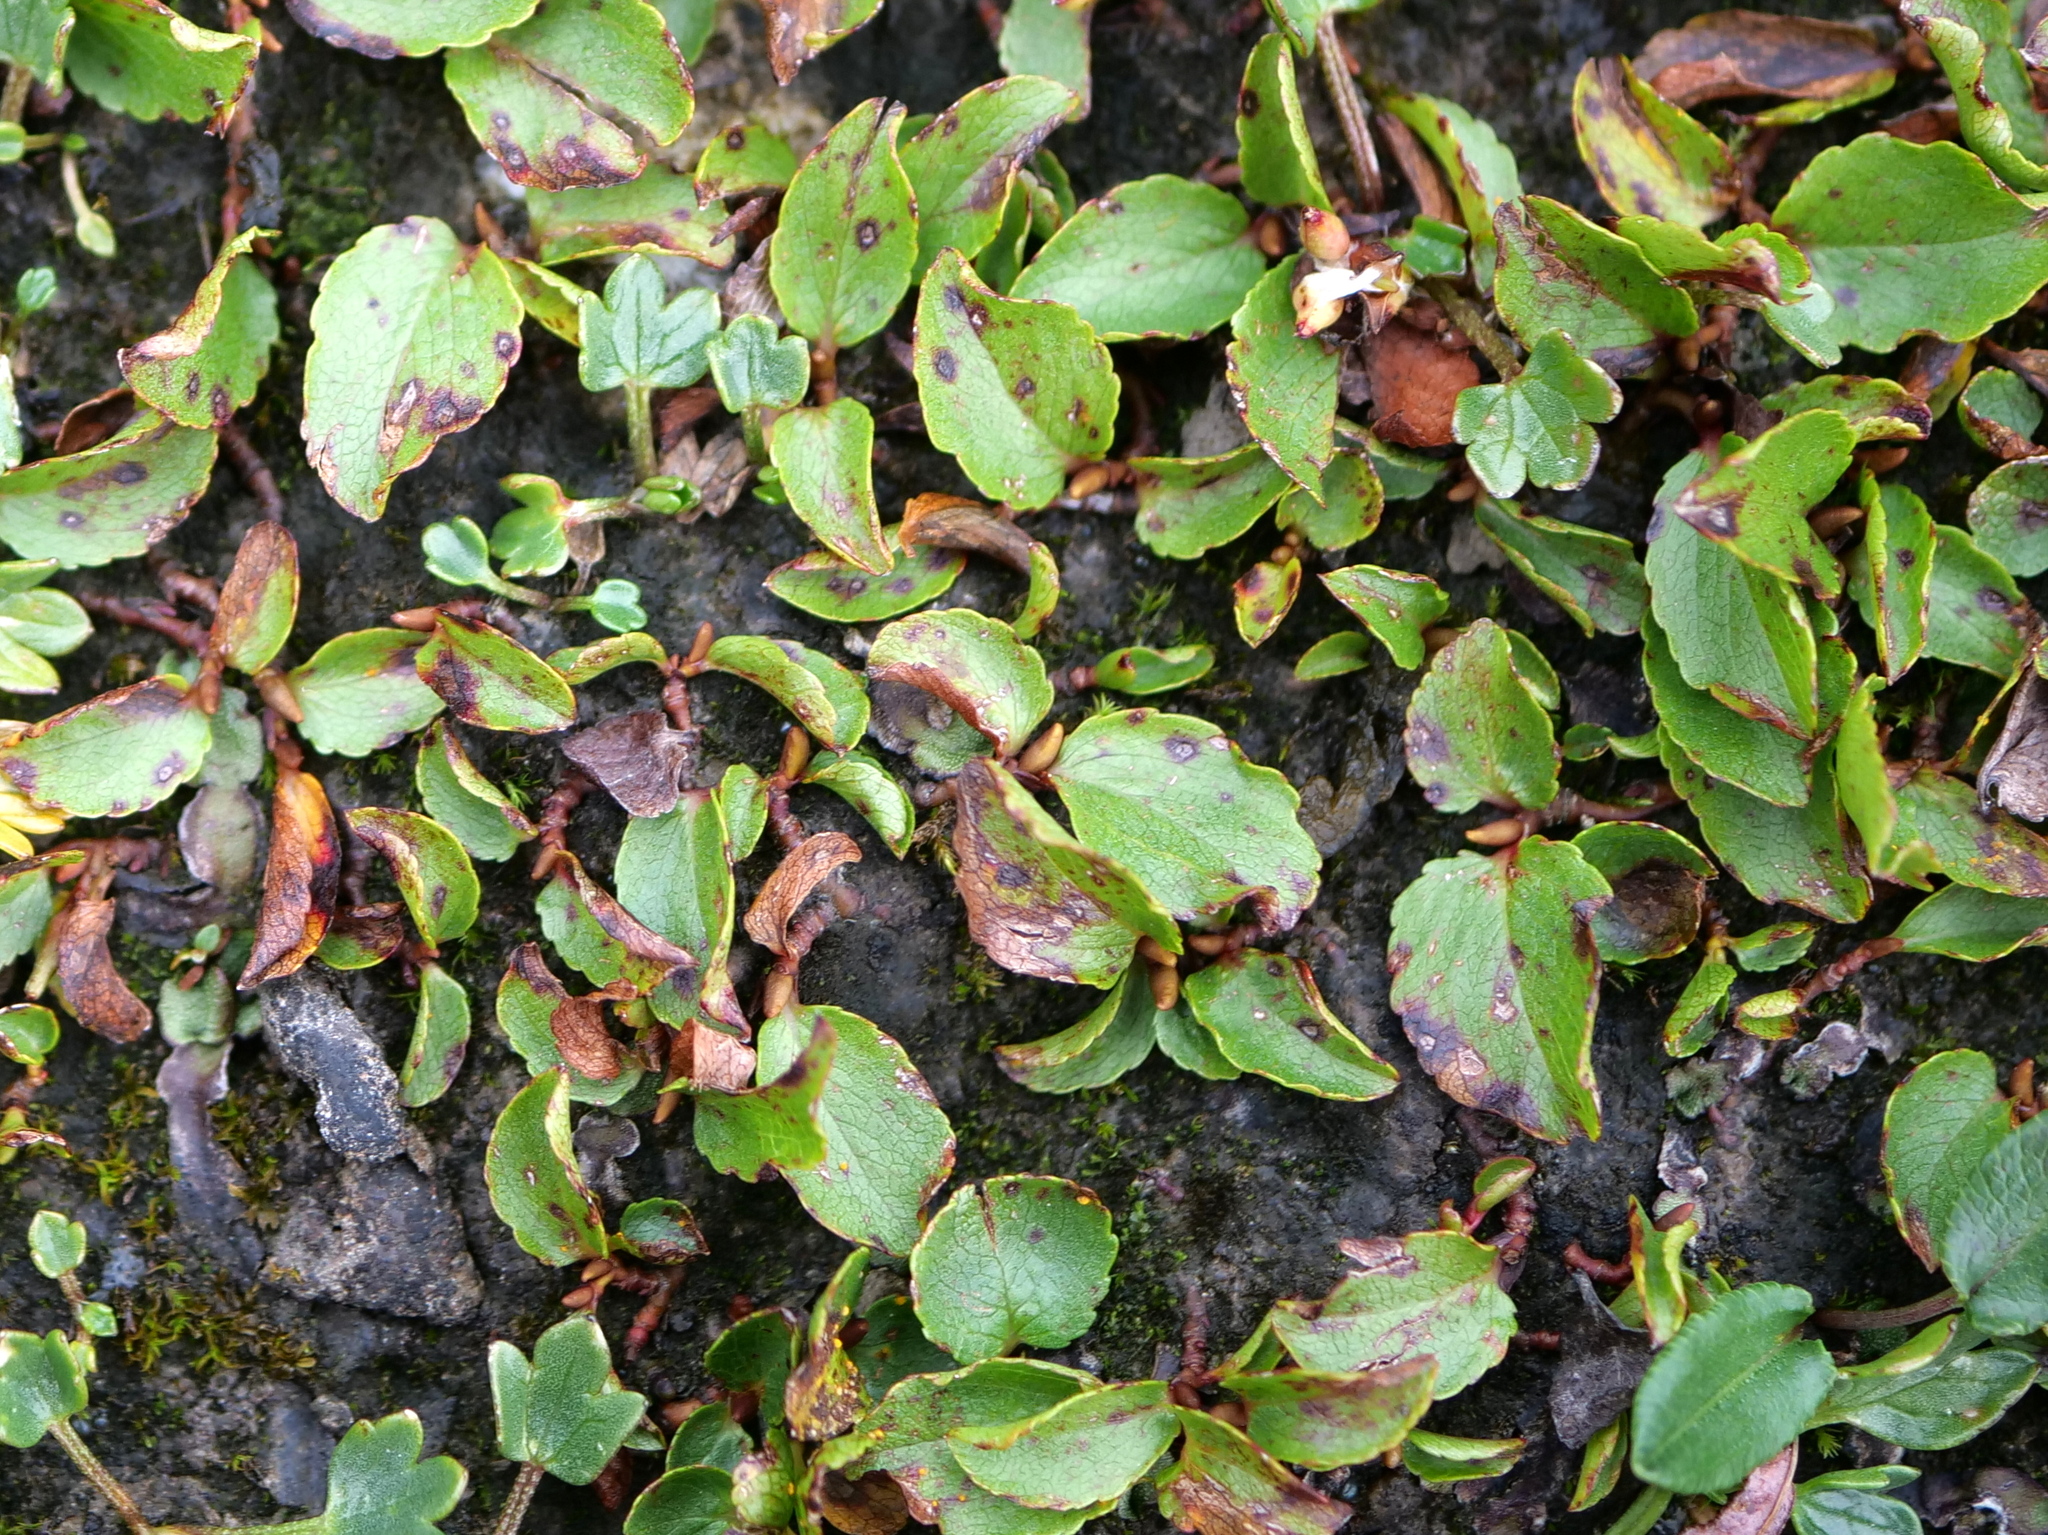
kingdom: Plantae
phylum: Tracheophyta
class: Magnoliopsida
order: Malpighiales
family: Salicaceae
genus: Salix
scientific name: Salix herbacea
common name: Dwarf willow
